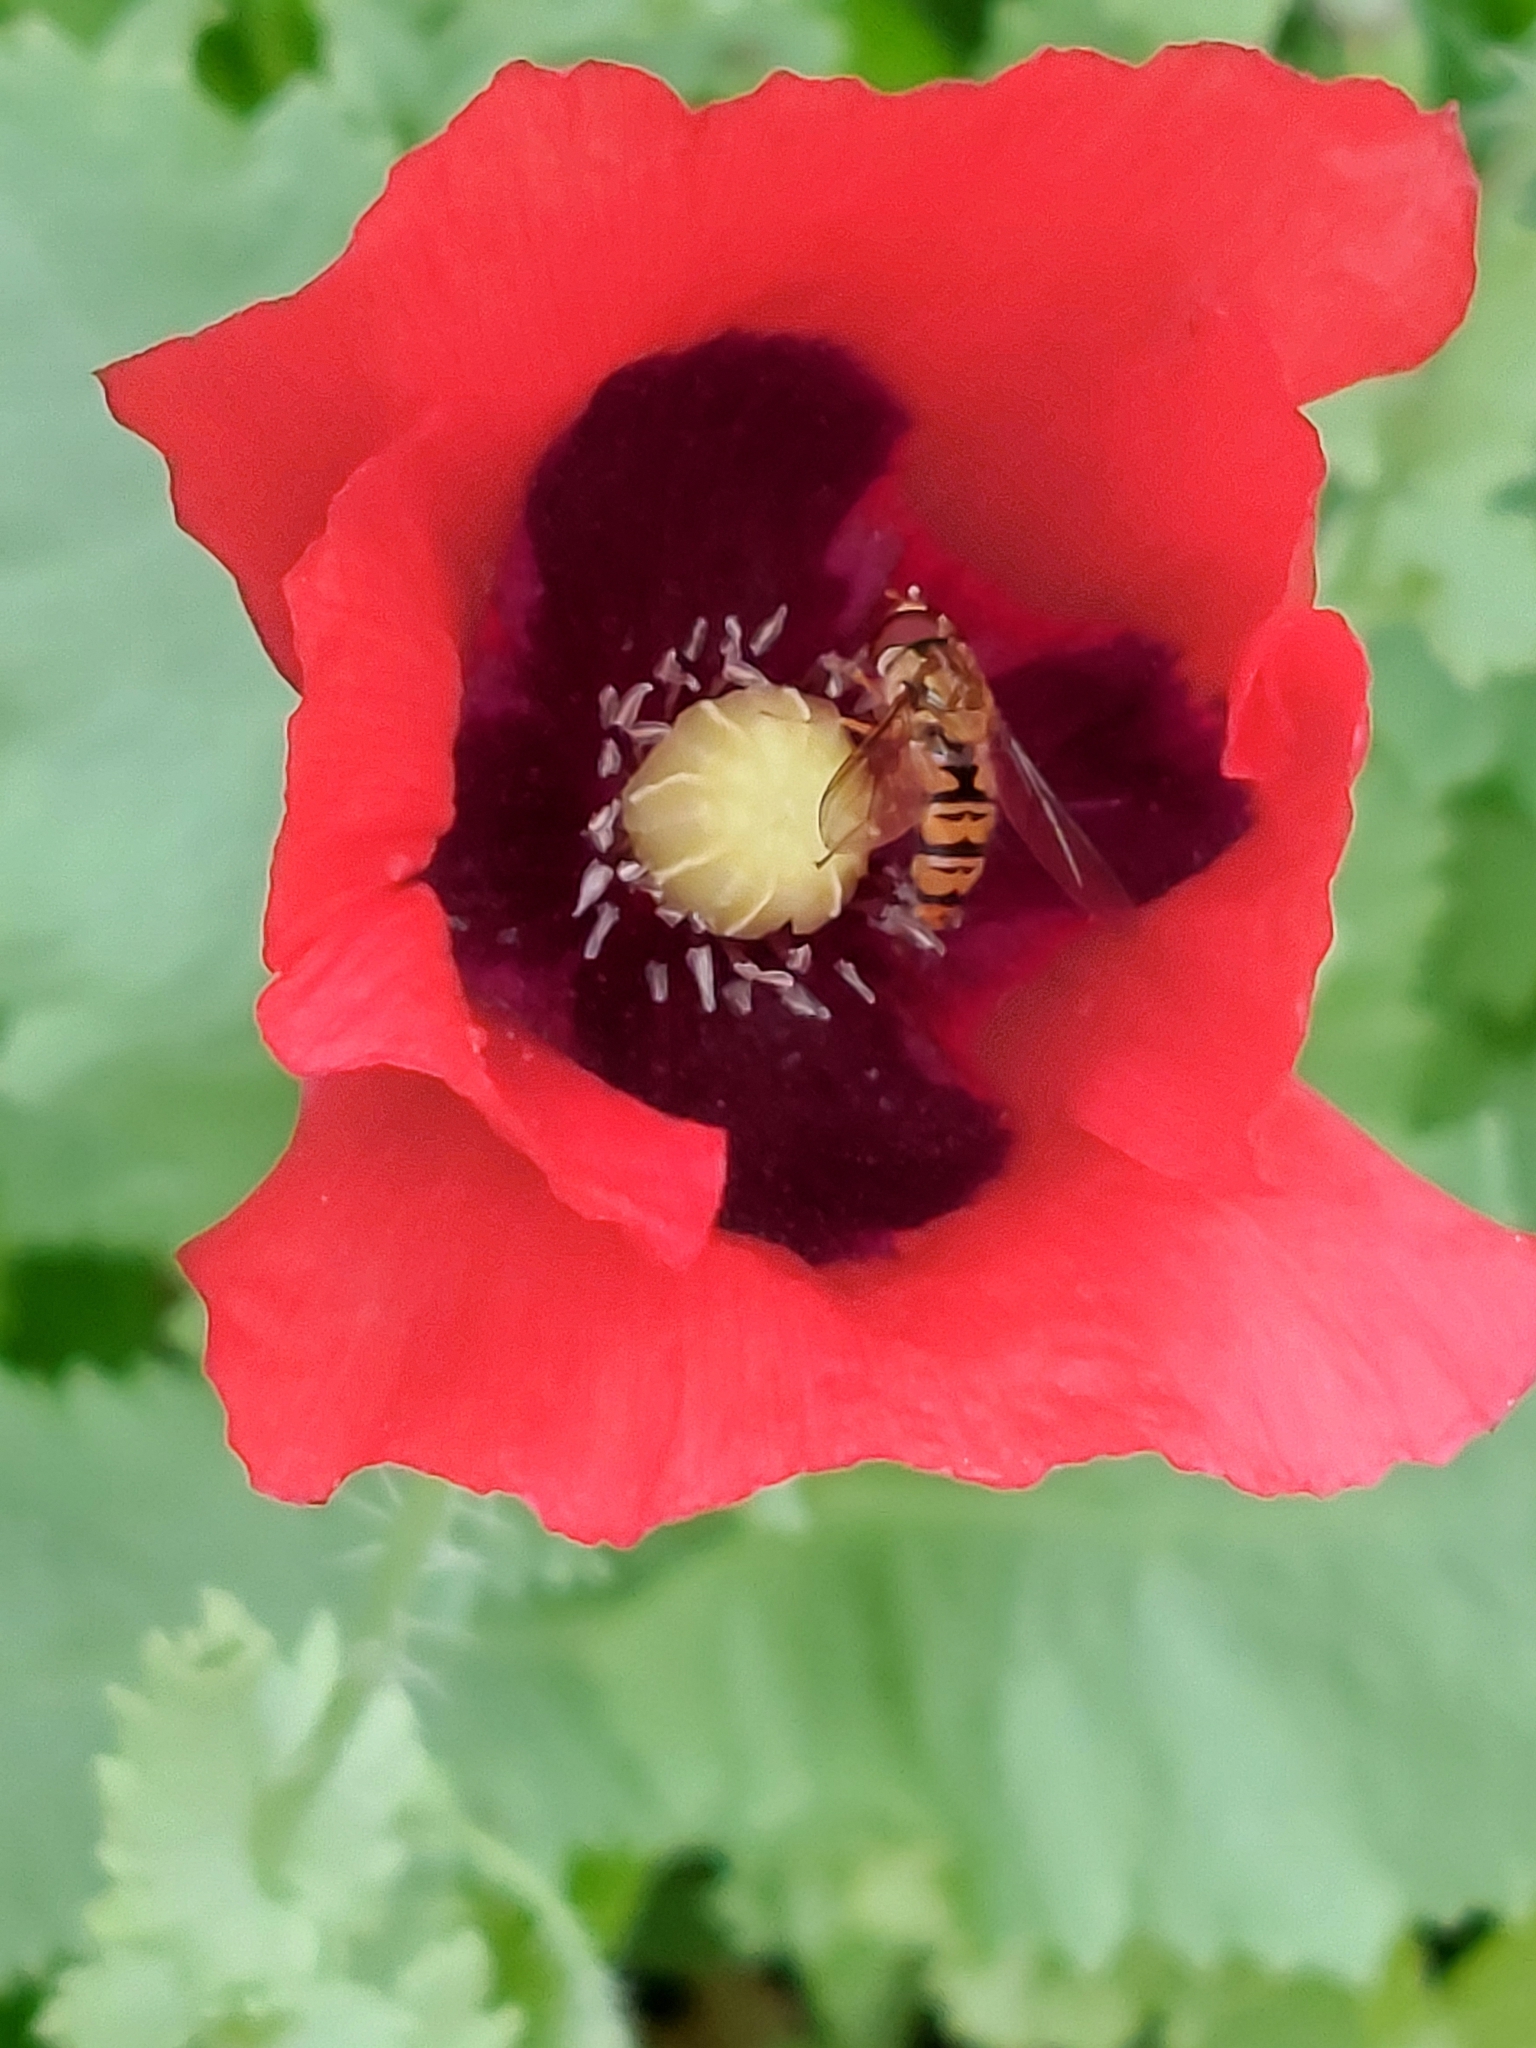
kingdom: Animalia
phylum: Arthropoda
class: Insecta
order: Diptera
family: Syrphidae
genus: Episyrphus
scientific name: Episyrphus balteatus
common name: Marmalade hoverfly
